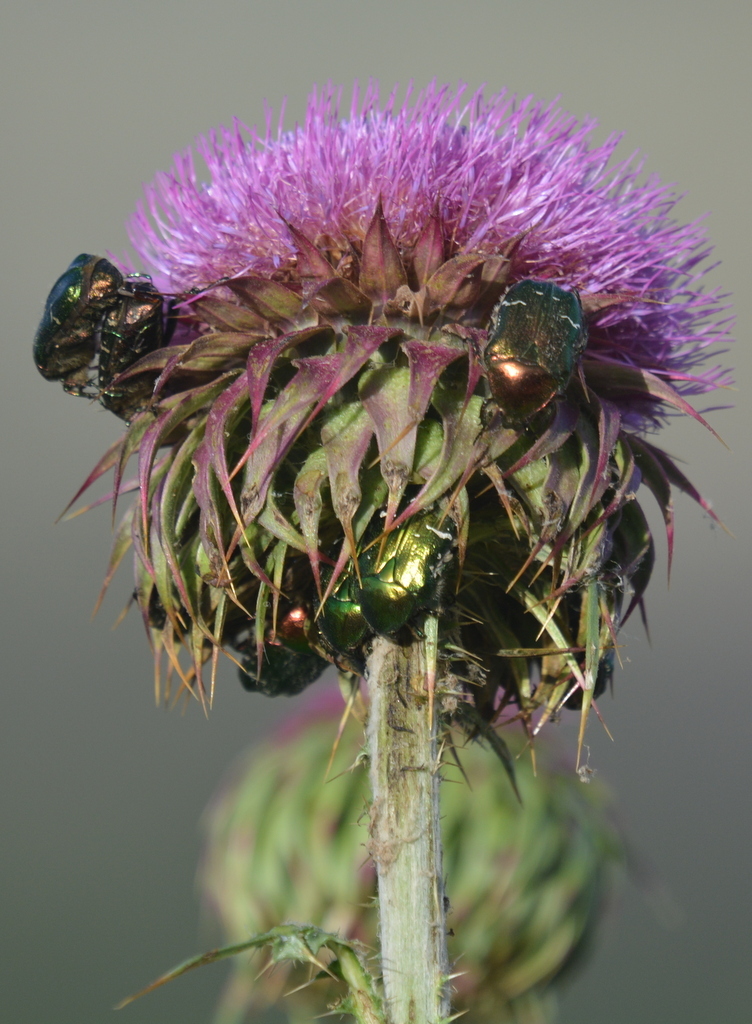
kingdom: Animalia
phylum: Arthropoda
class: Insecta
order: Coleoptera
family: Scarabaeidae
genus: Cetonia
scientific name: Cetonia aurata
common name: Rose chafer
